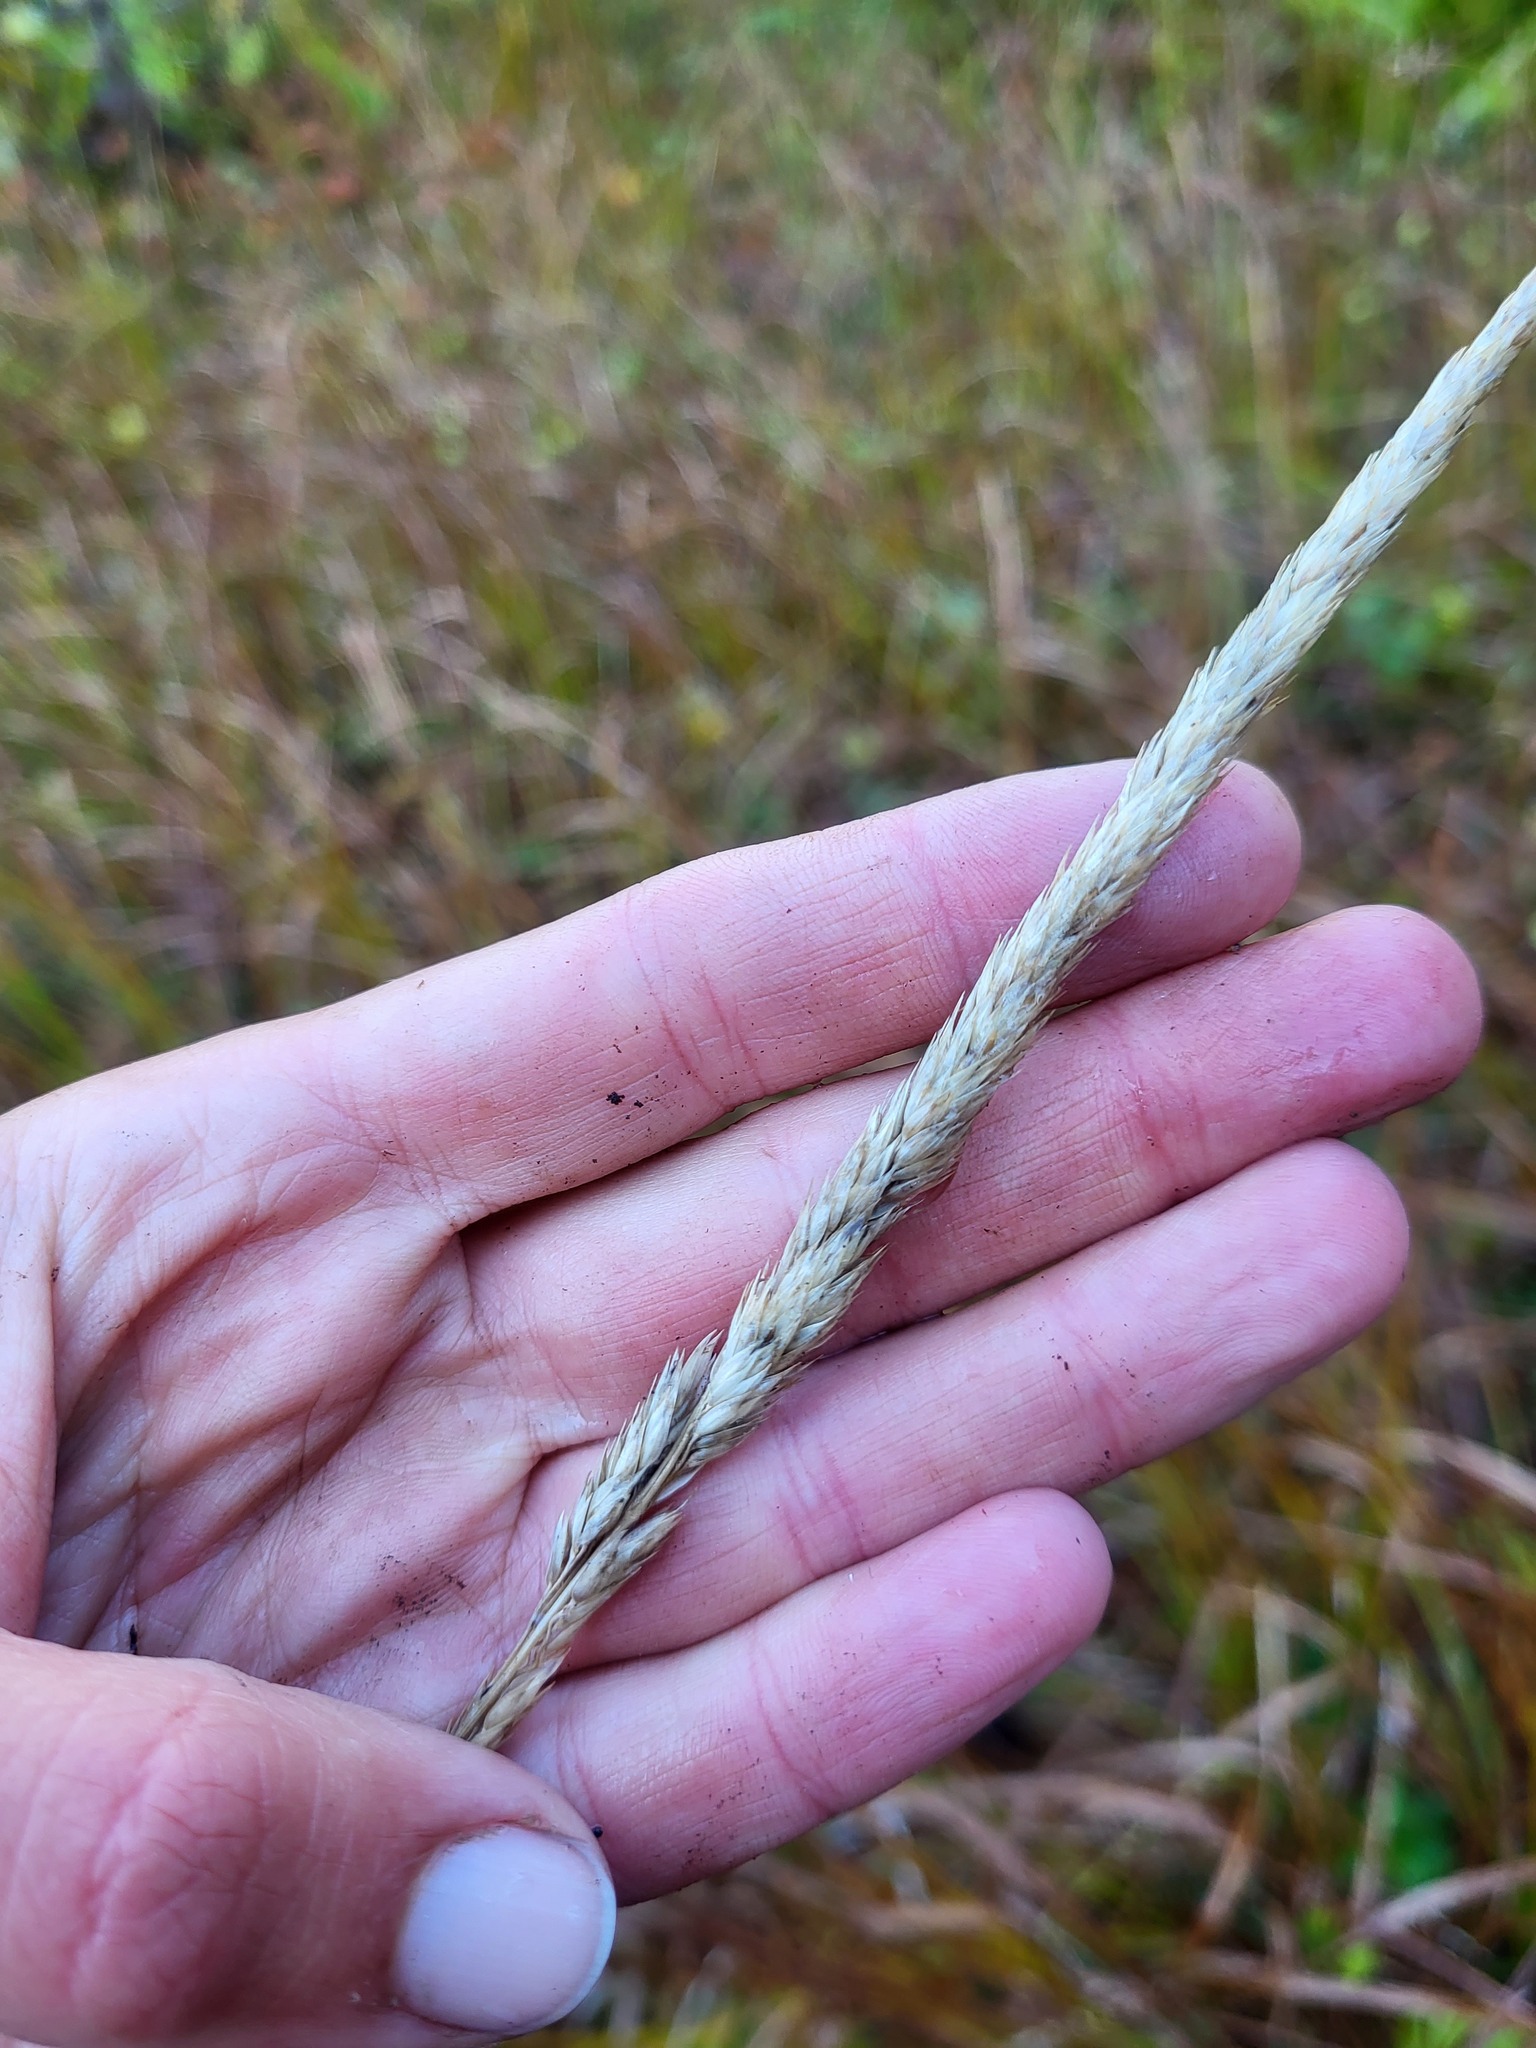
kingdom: Plantae
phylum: Tracheophyta
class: Liliopsida
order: Poales
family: Poaceae
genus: Phalaris
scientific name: Phalaris arundinacea
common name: Reed canary-grass
